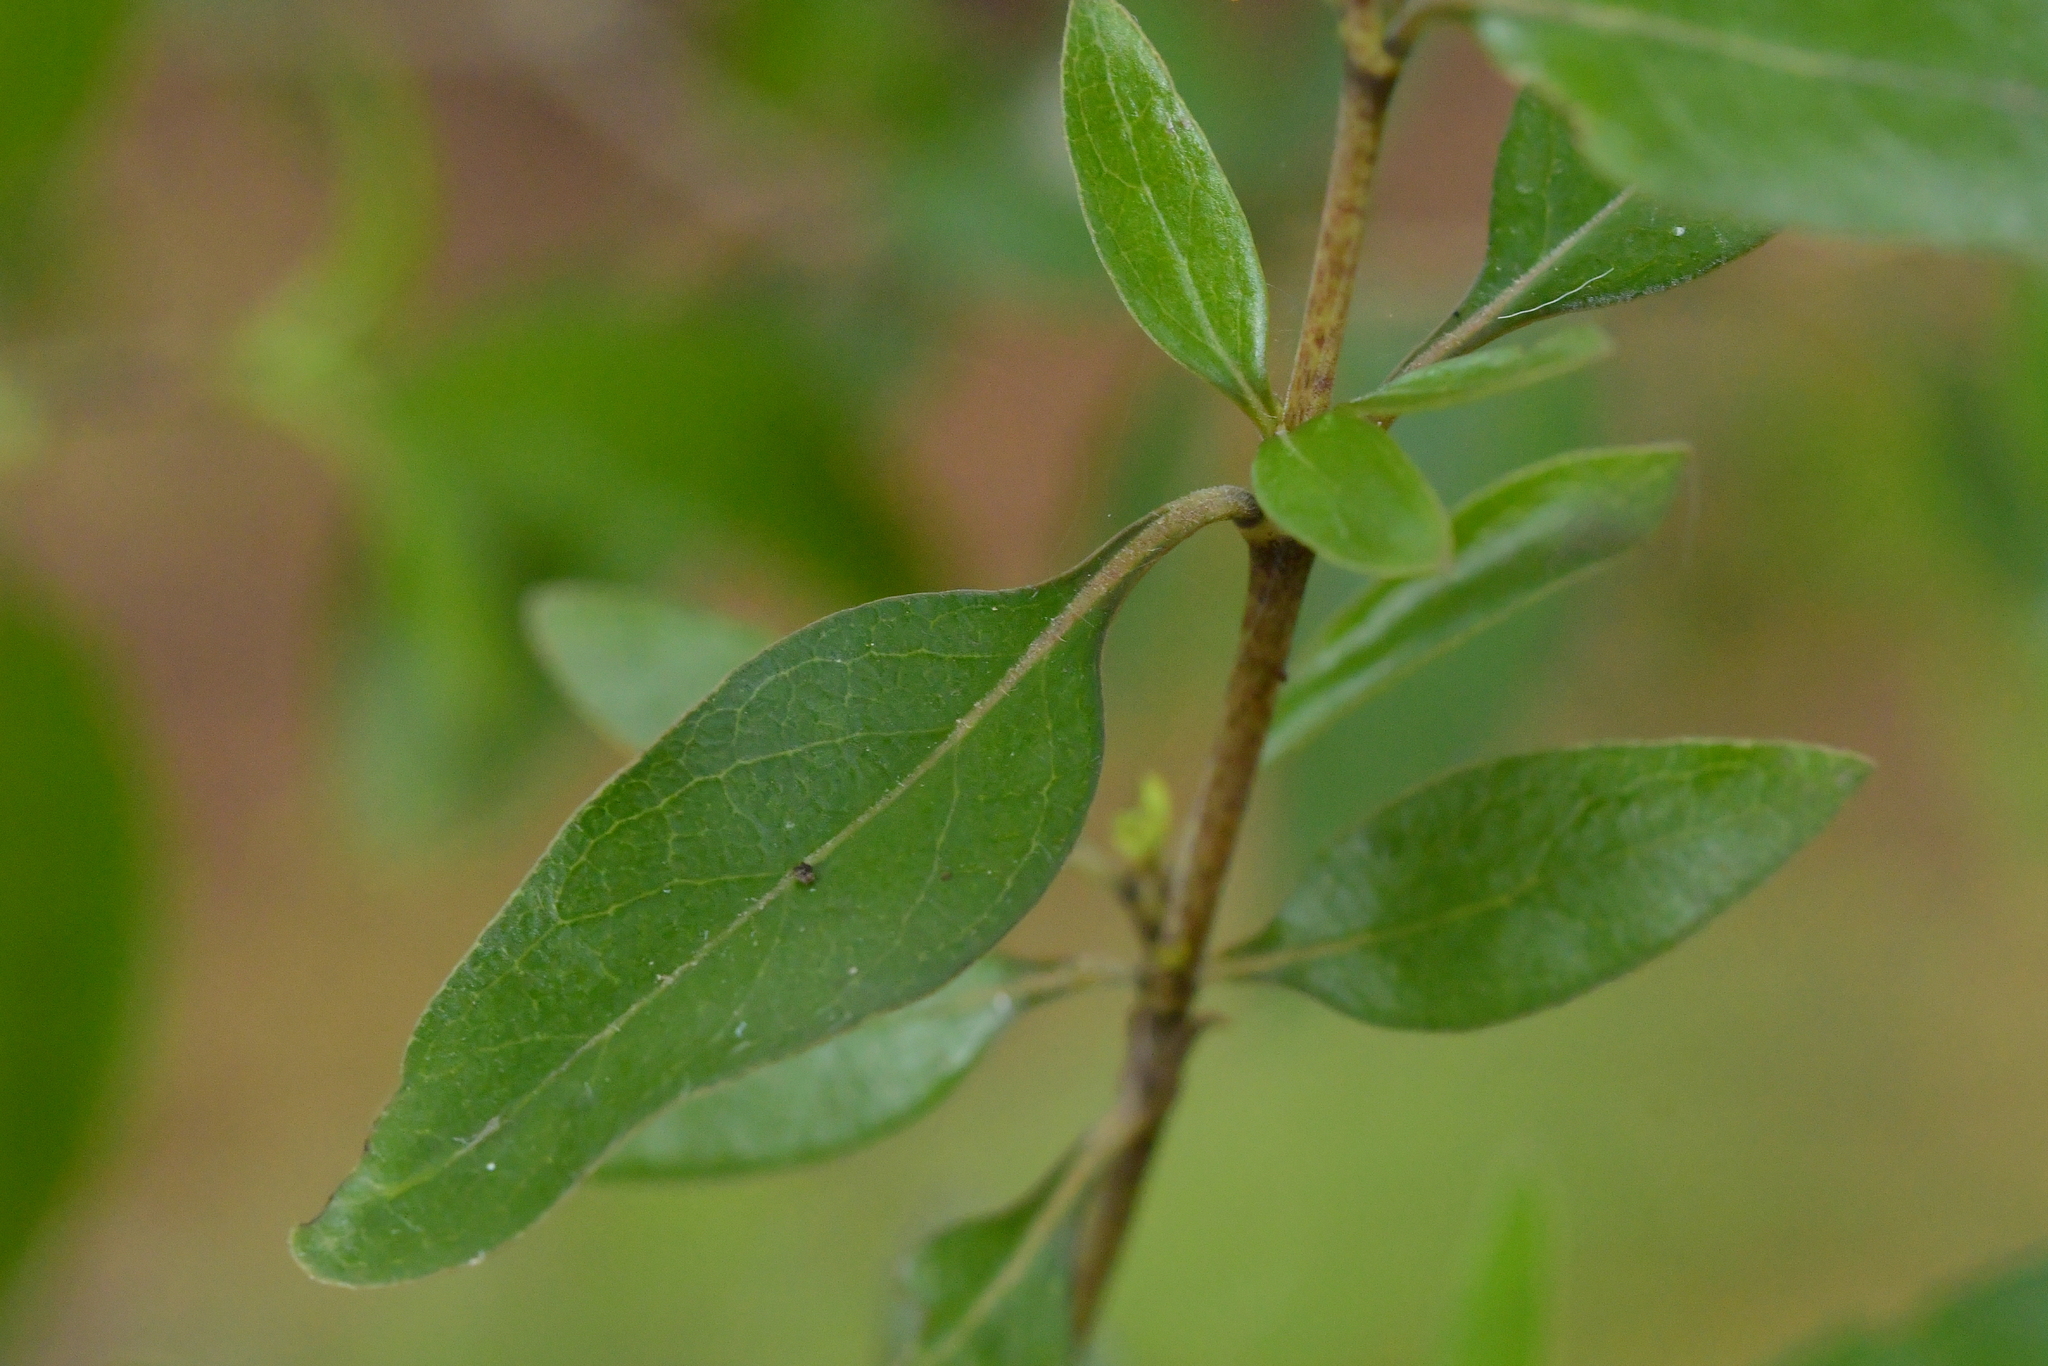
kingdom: Plantae
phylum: Tracheophyta
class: Magnoliopsida
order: Gentianales
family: Rubiaceae
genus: Coprosma
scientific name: Coprosma cunninghamii
